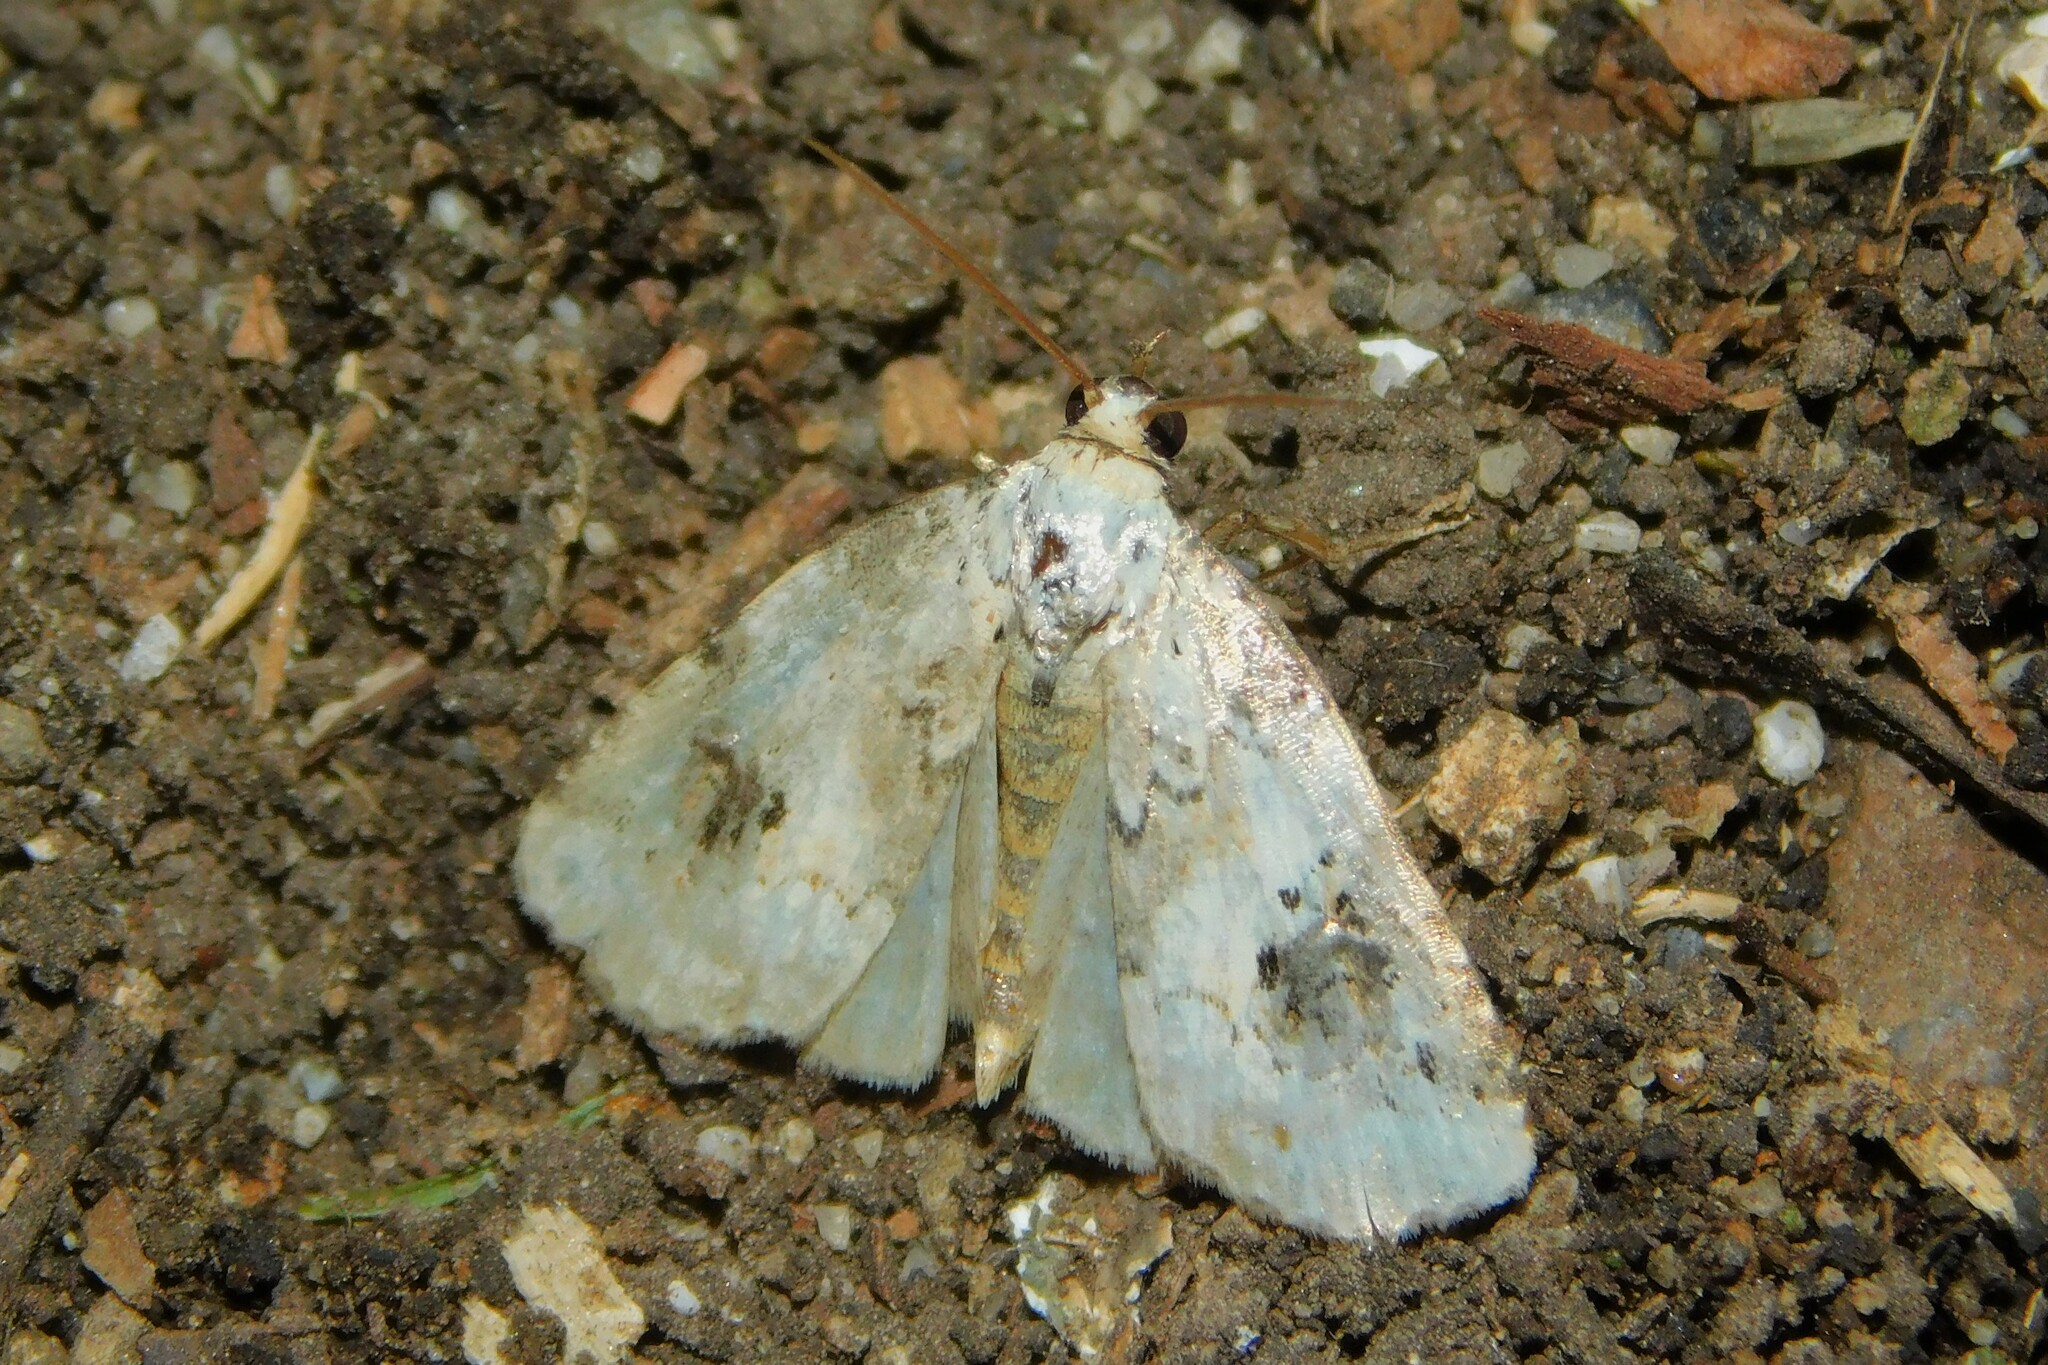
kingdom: Animalia
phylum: Arthropoda
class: Insecta
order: Lepidoptera
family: Noctuidae
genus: Pseudeustrotia
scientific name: Pseudeustrotia candidula
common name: Shining marbled
